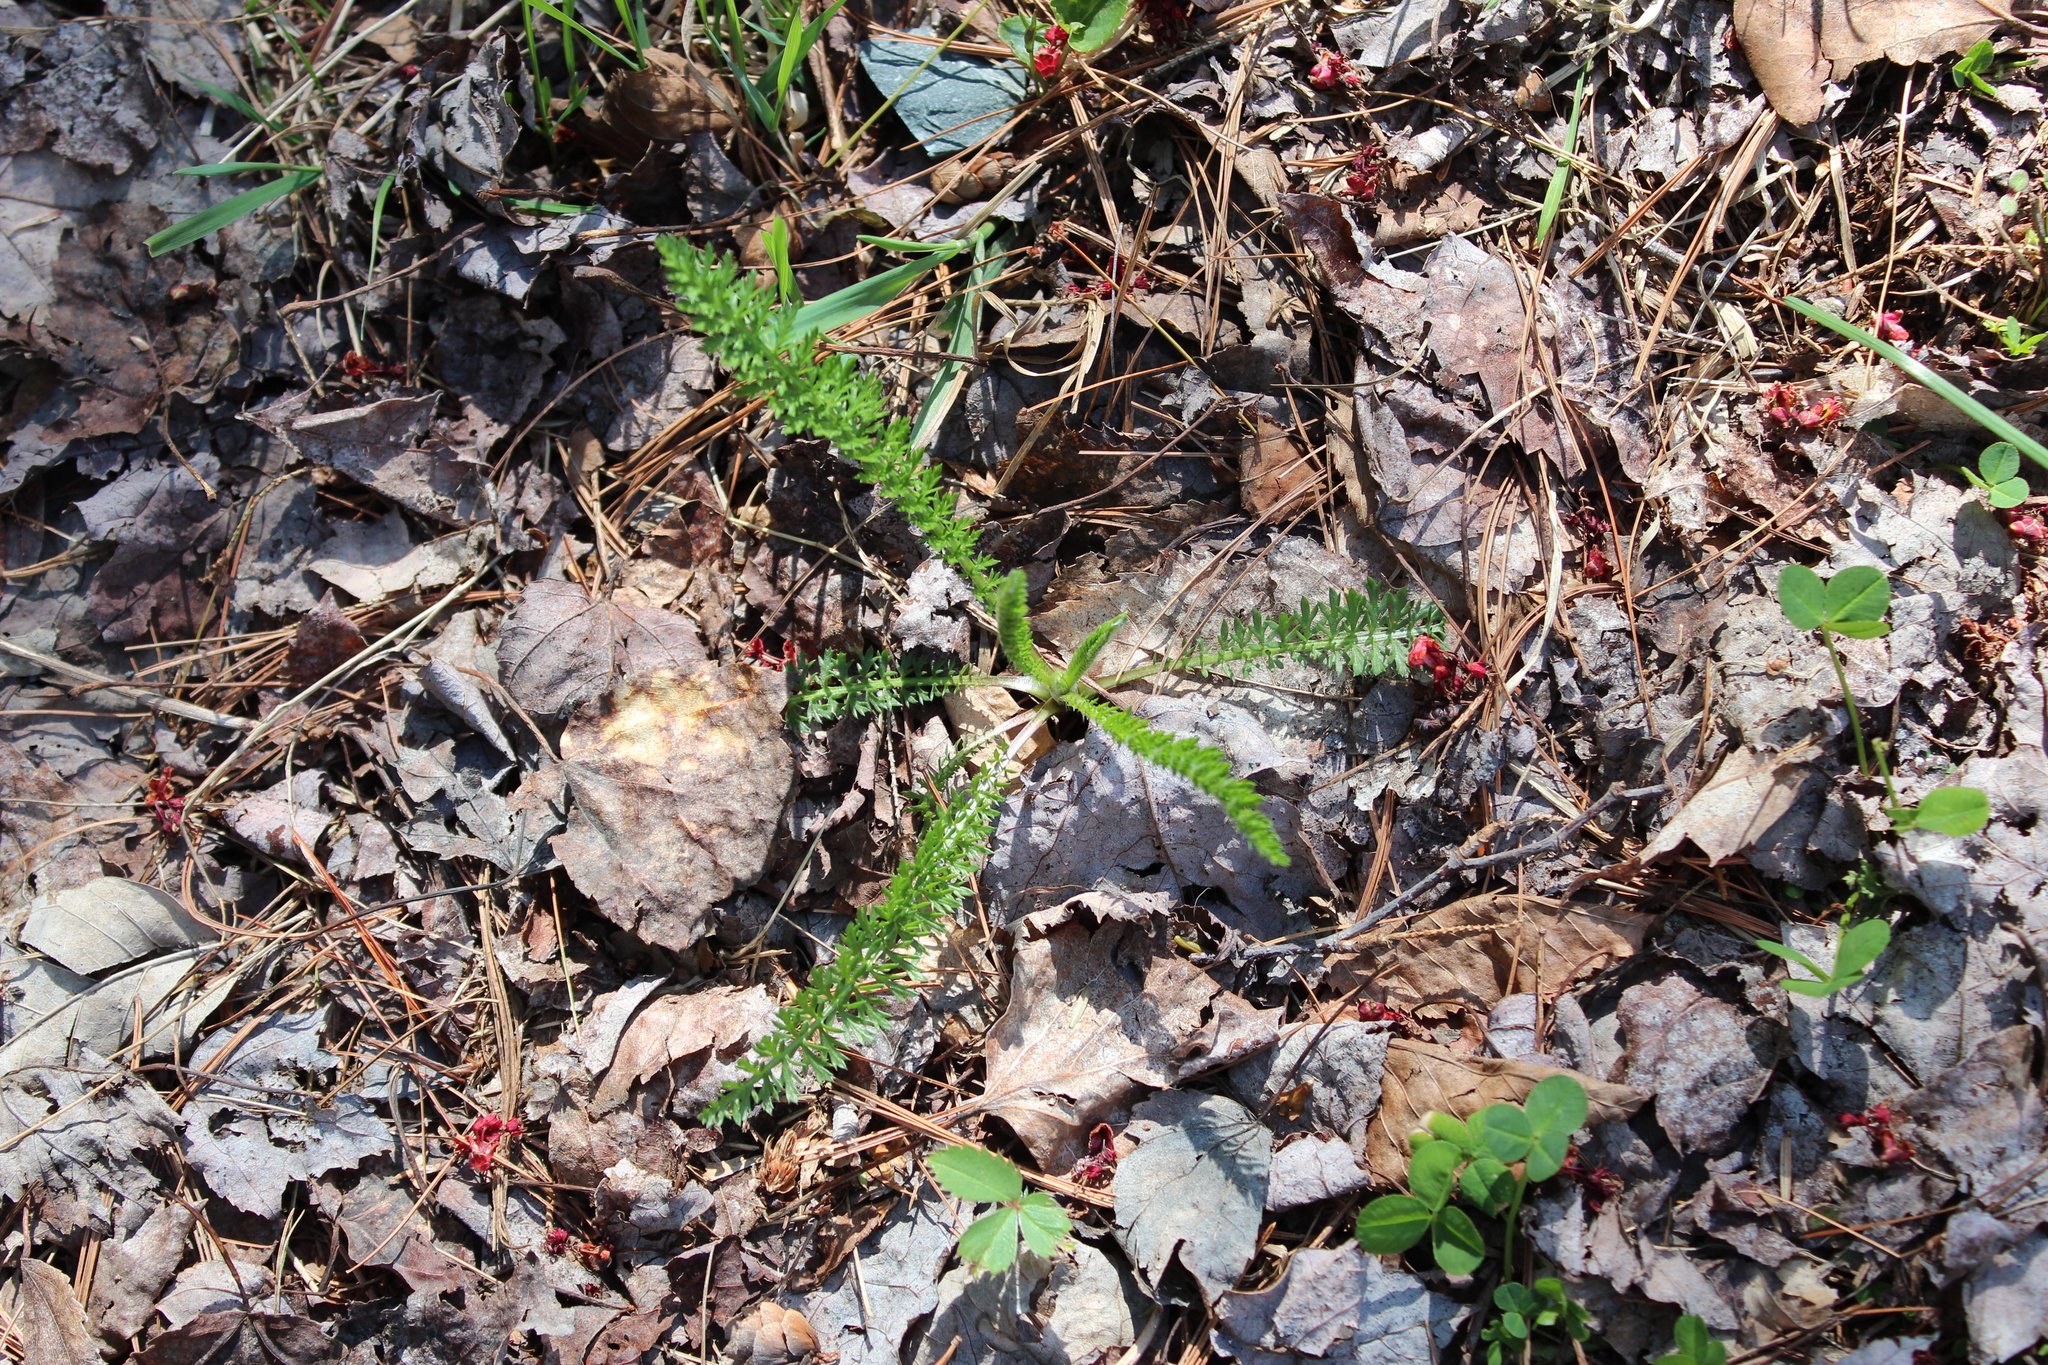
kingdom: Plantae
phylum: Tracheophyta
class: Magnoliopsida
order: Asterales
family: Asteraceae
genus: Achillea
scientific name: Achillea millefolium
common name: Yarrow
